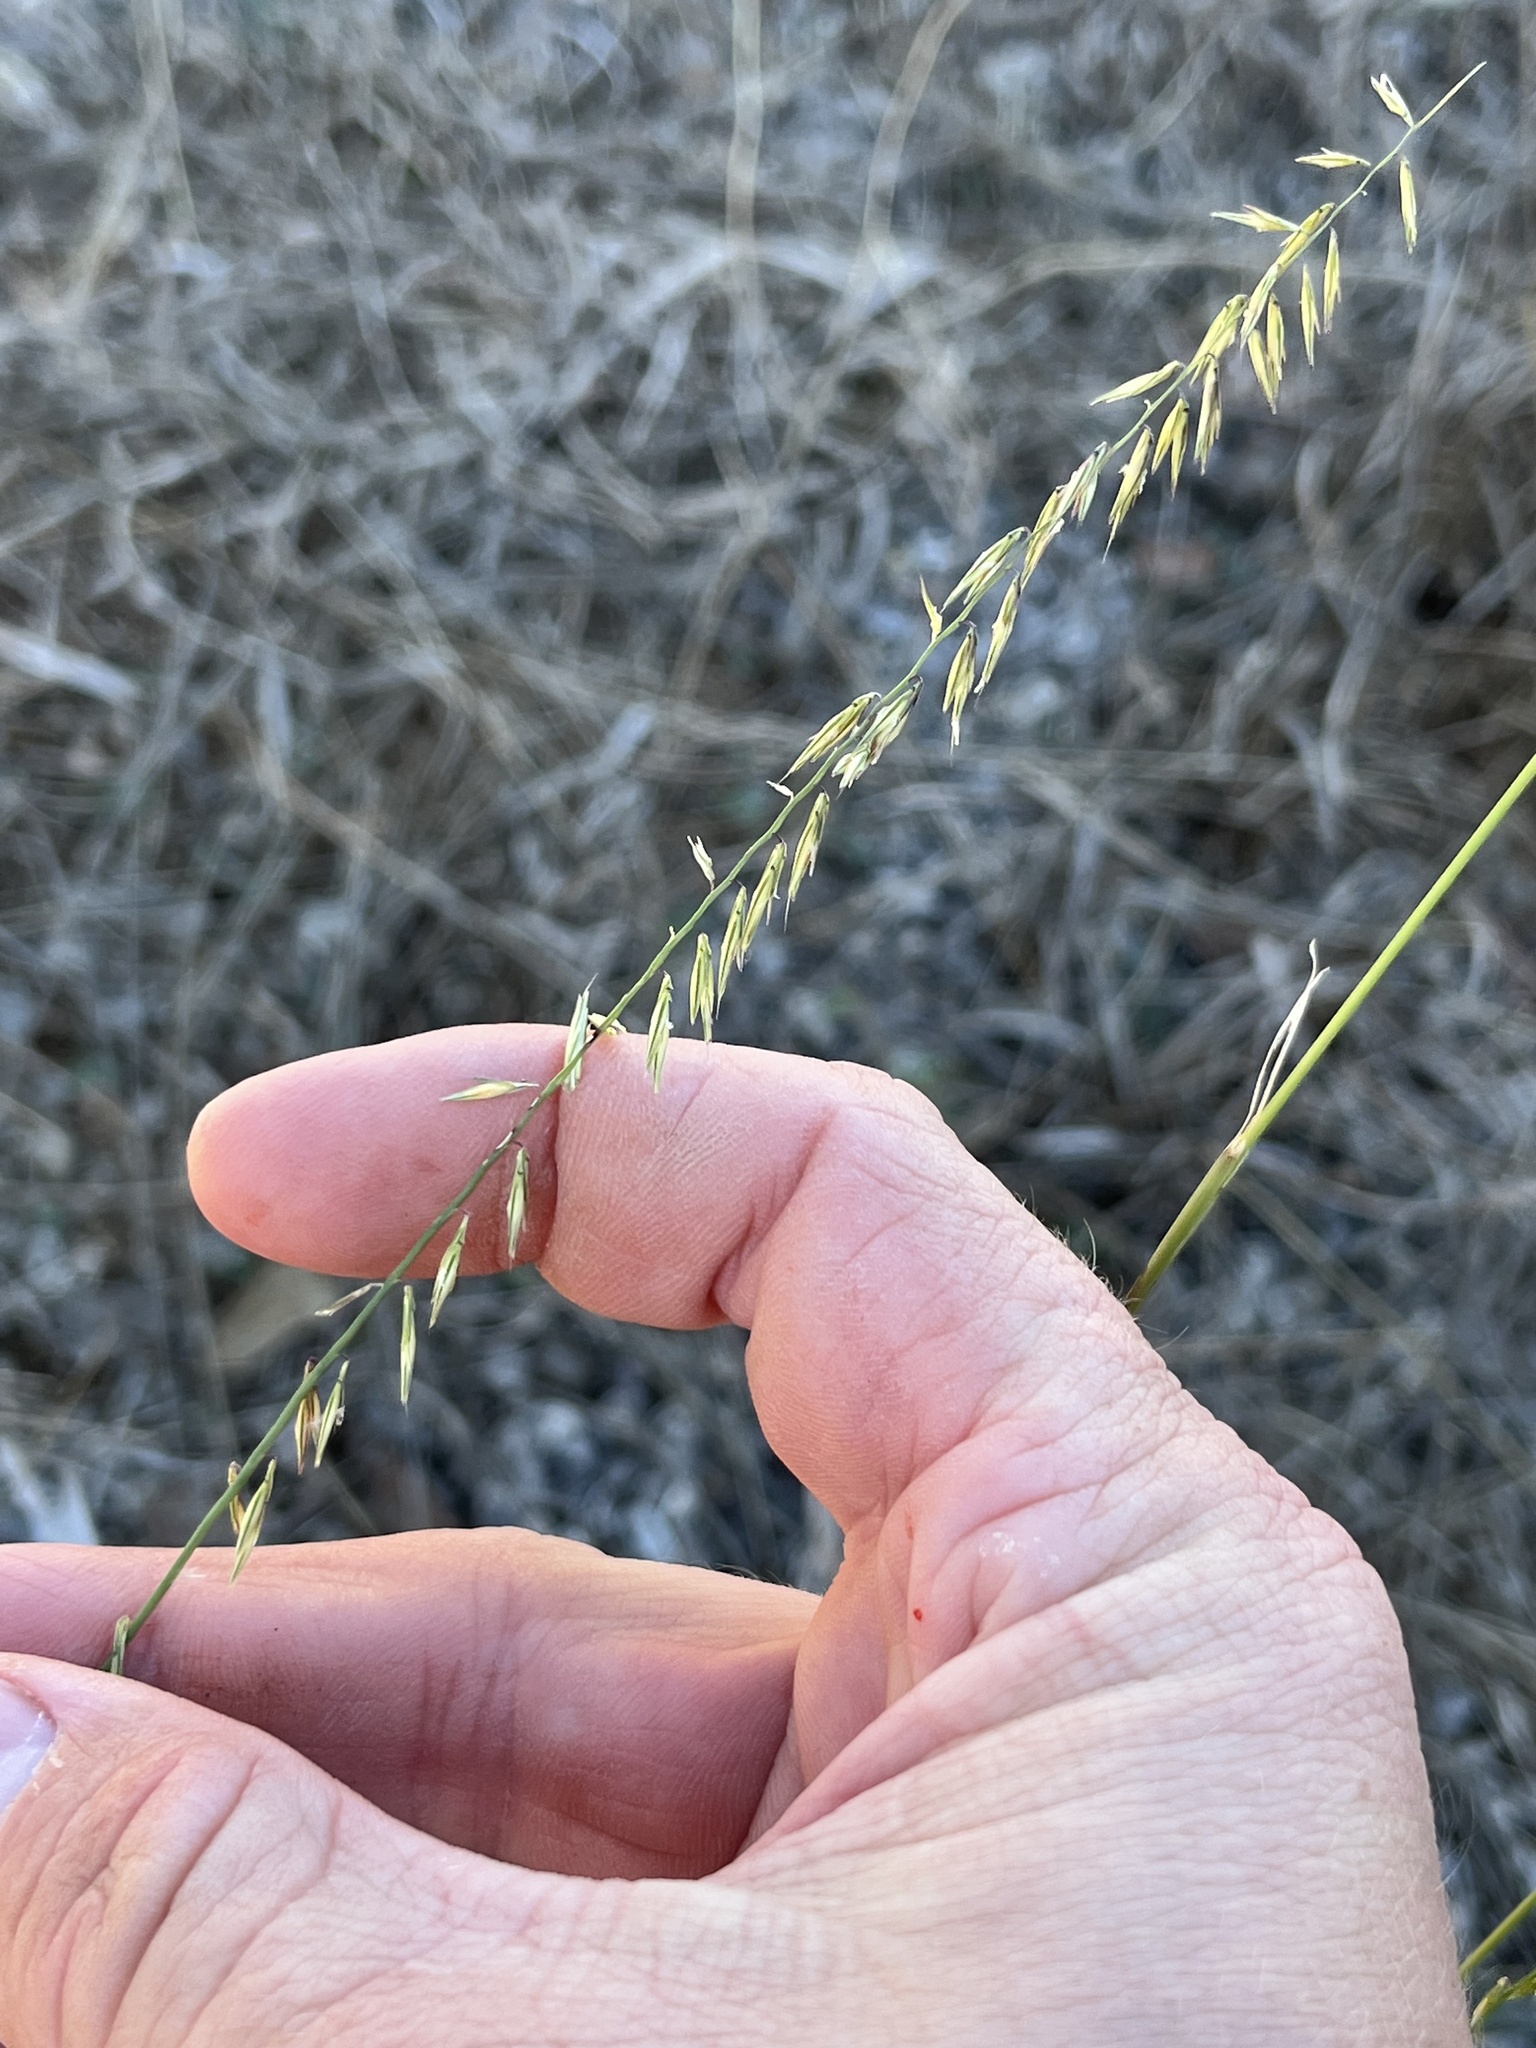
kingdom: Plantae
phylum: Tracheophyta
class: Liliopsida
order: Poales
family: Poaceae
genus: Bouteloua
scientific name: Bouteloua curtipendula
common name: Side-oats grama
